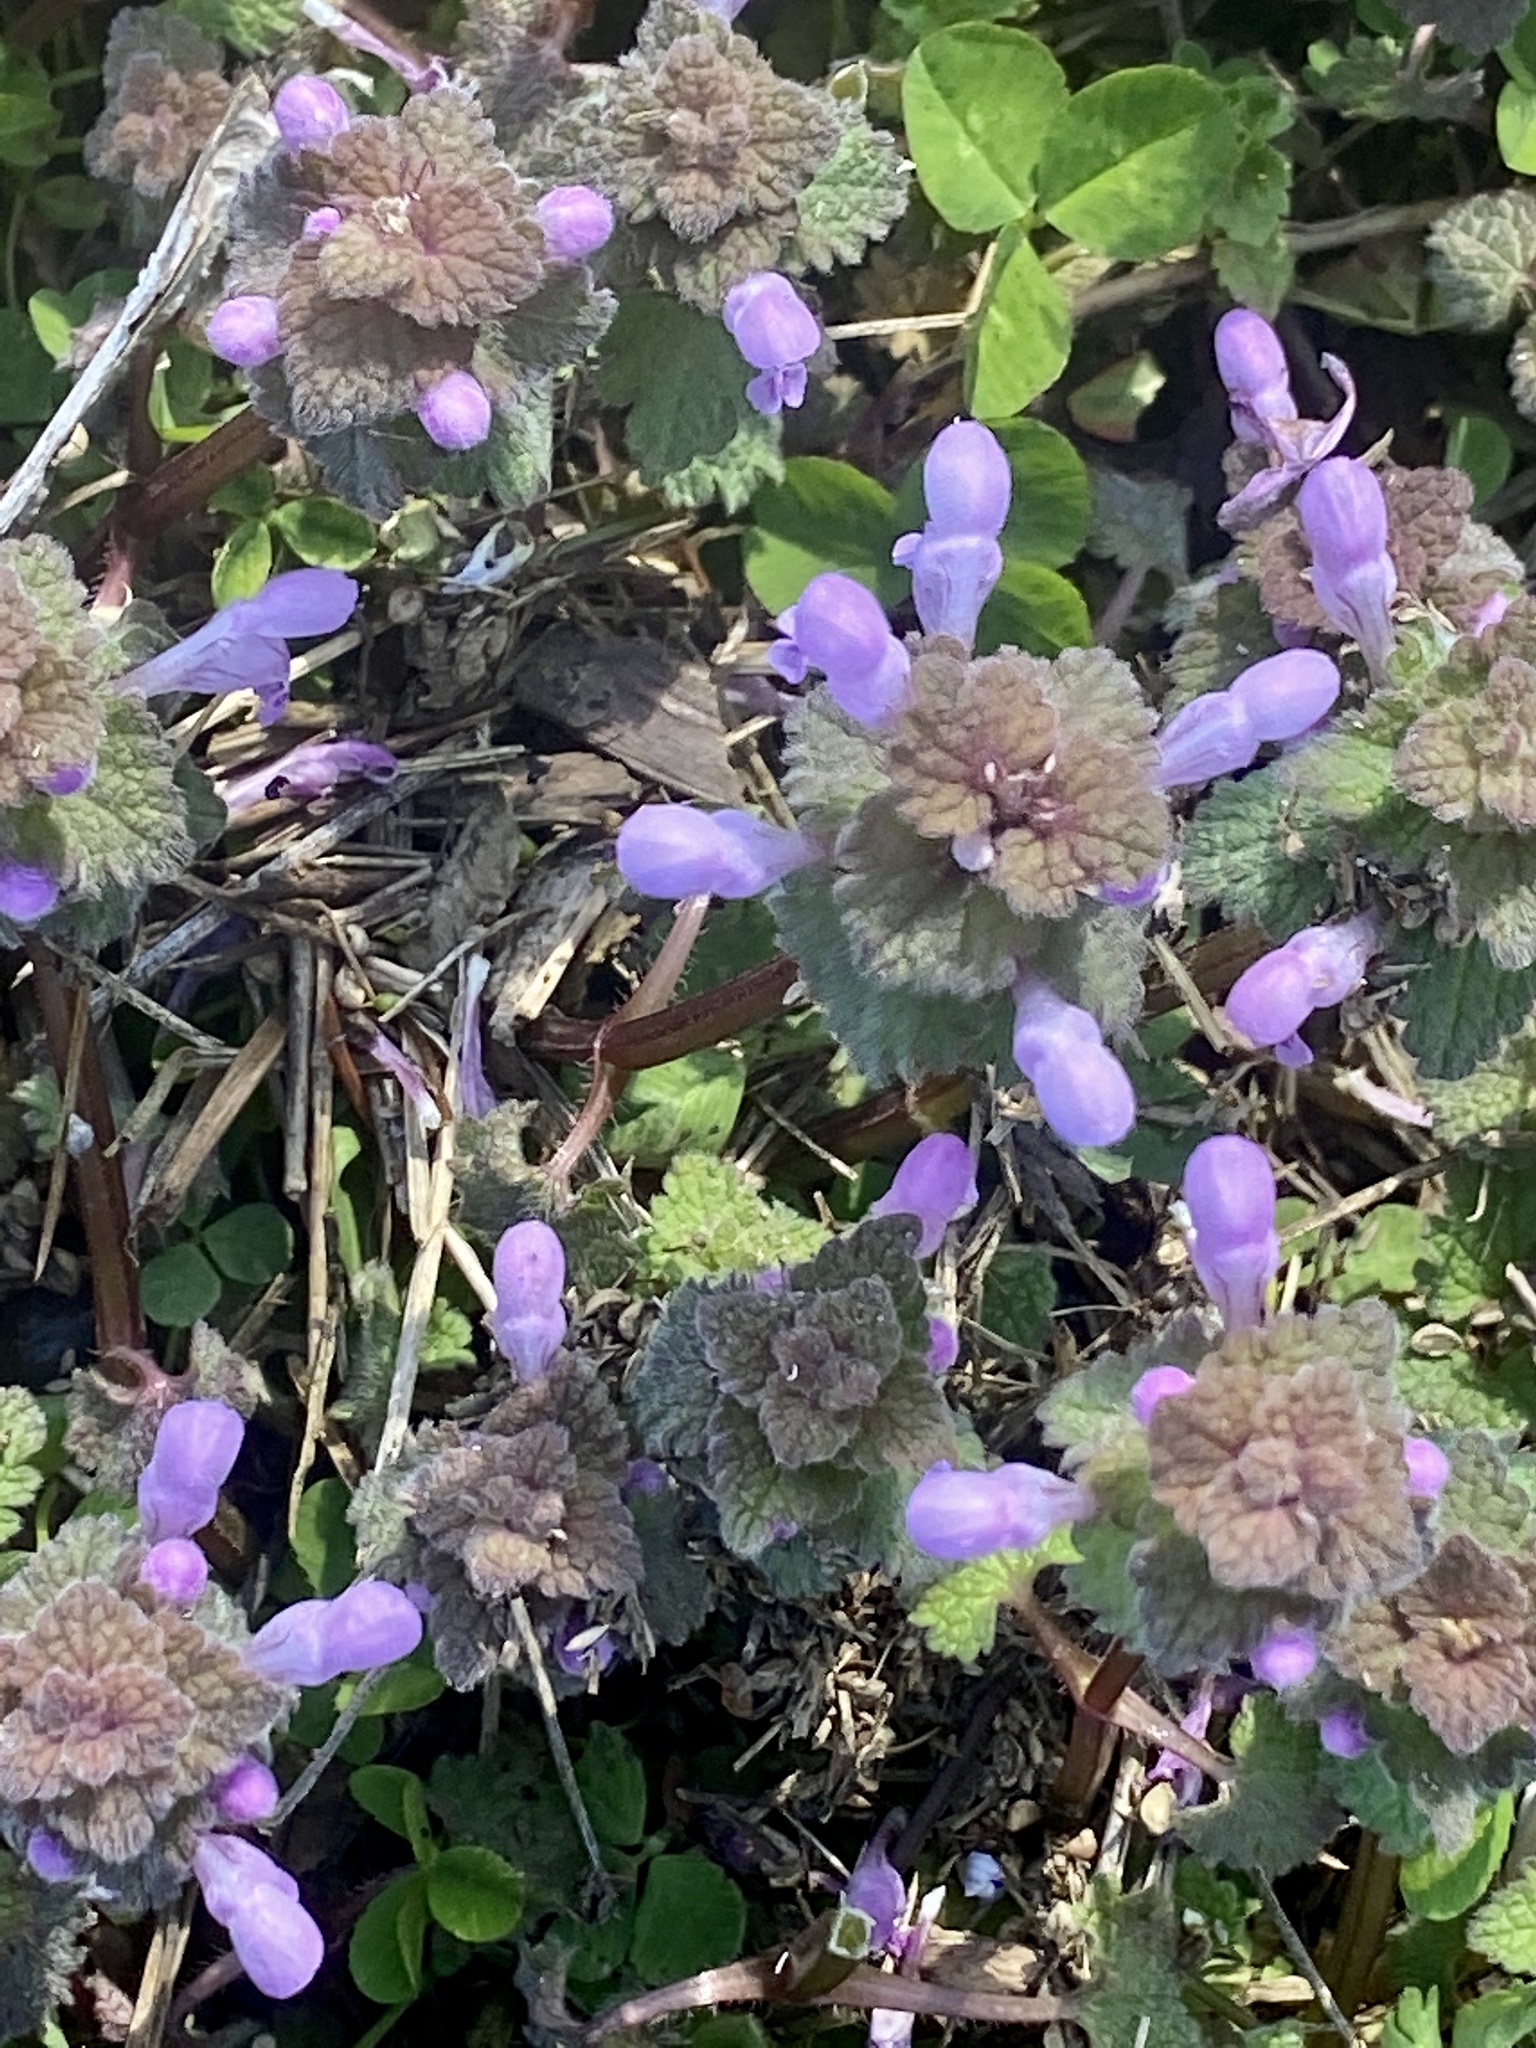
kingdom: Plantae
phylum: Tracheophyta
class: Magnoliopsida
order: Lamiales
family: Lamiaceae
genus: Lamium
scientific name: Lamium purpureum
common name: Red dead-nettle
